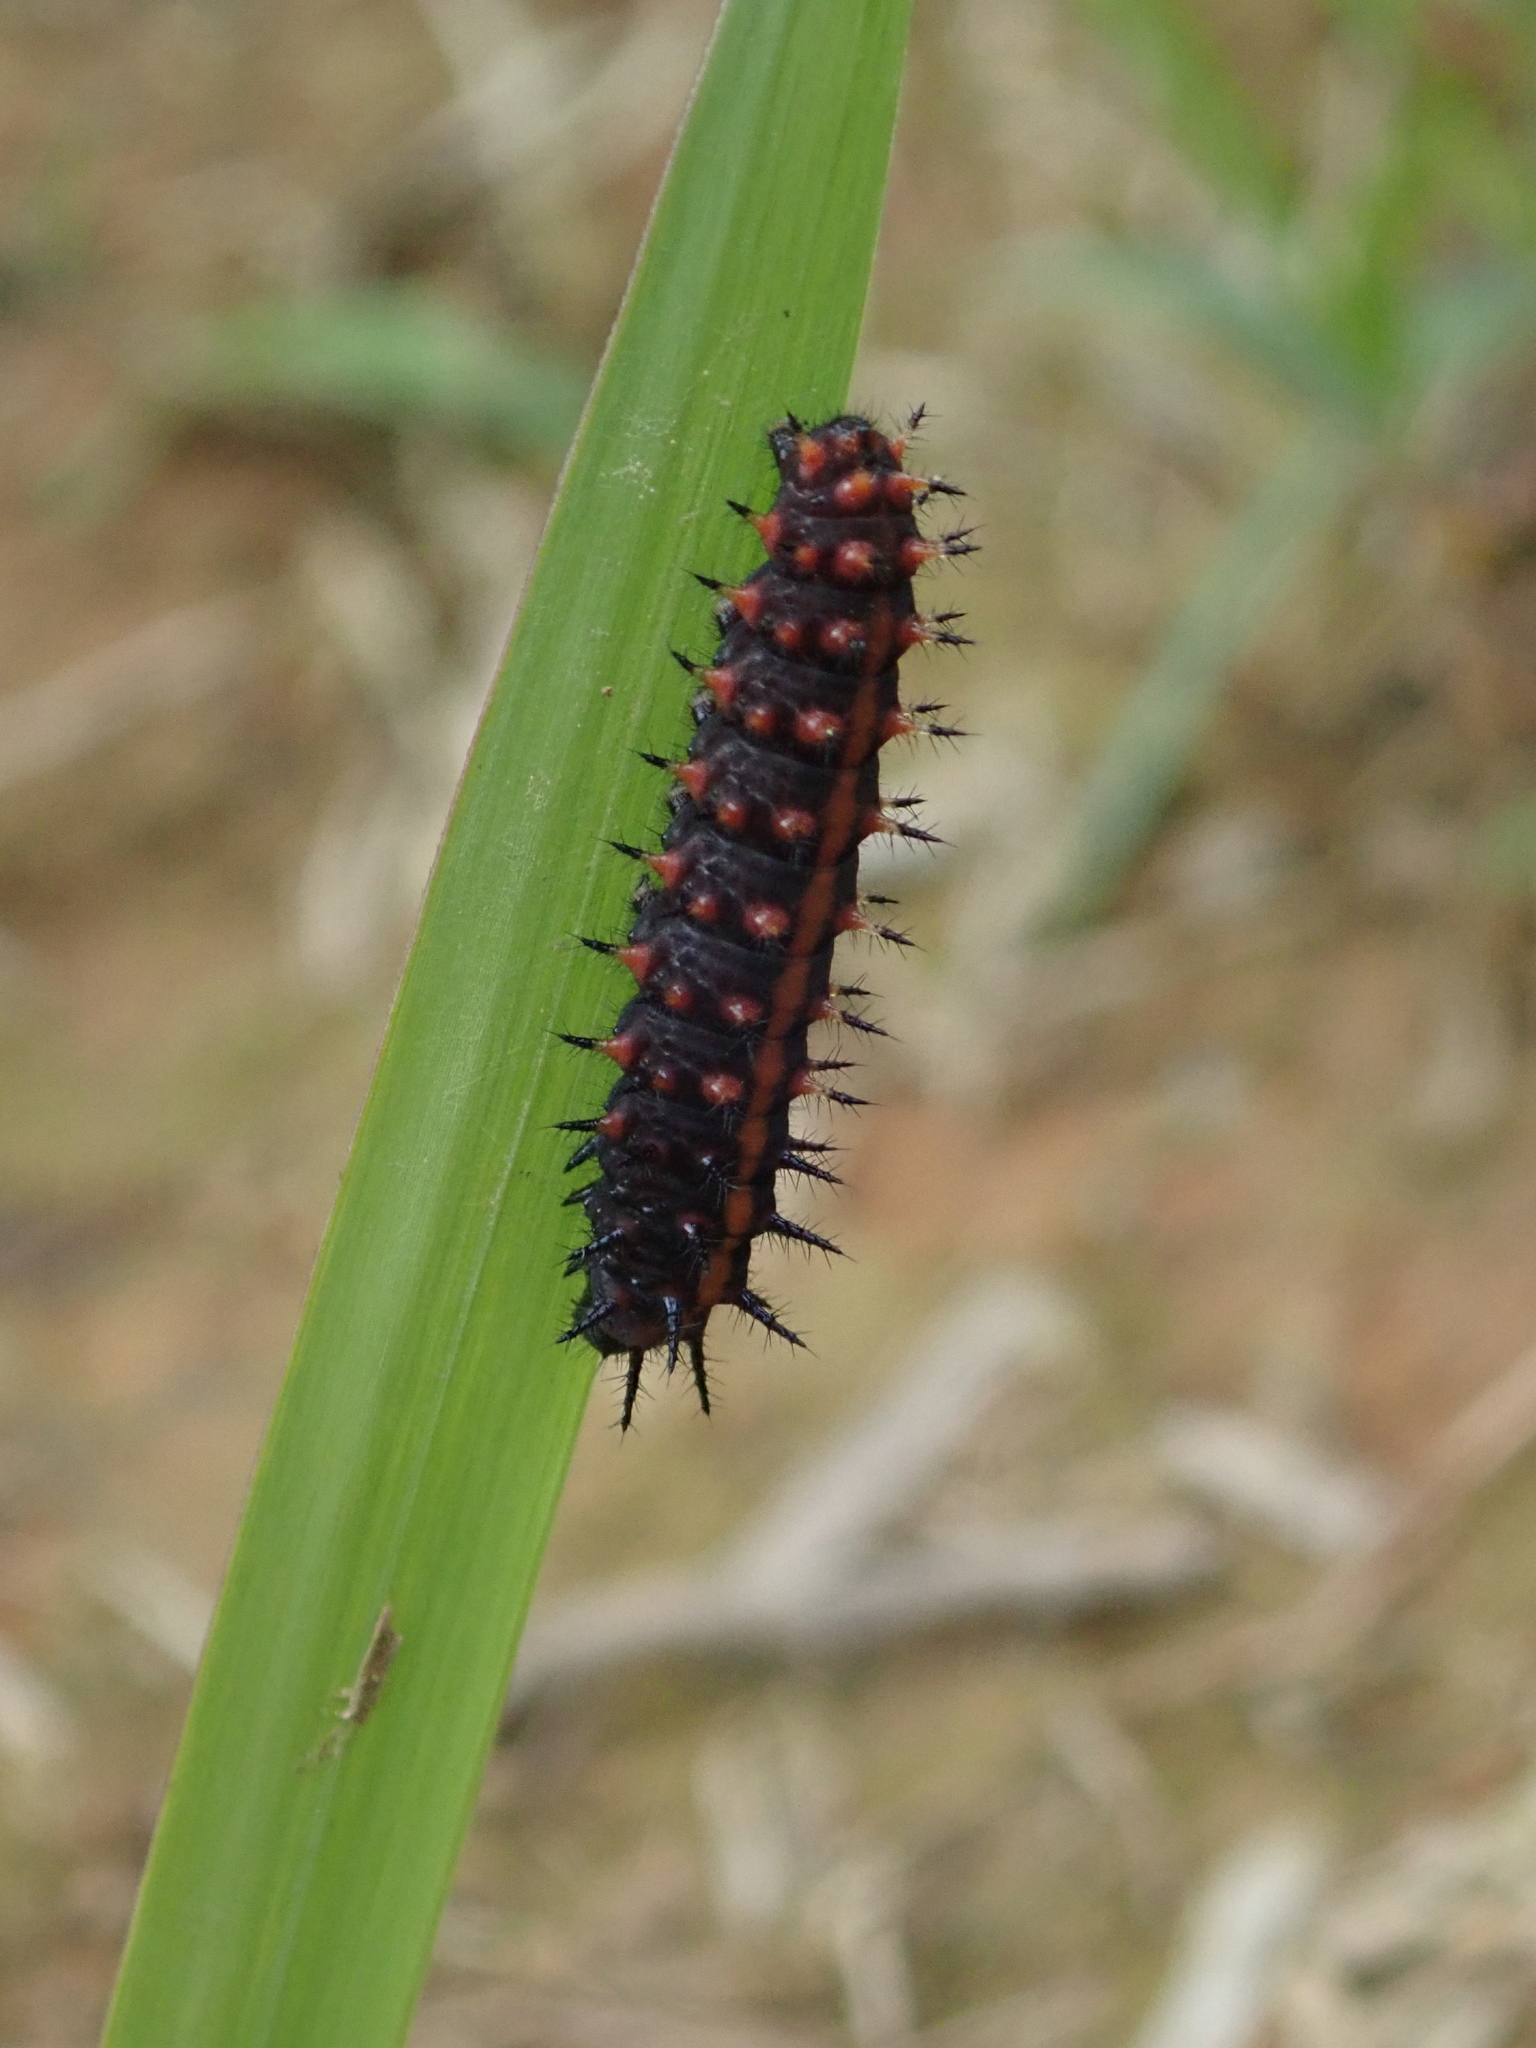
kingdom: Animalia
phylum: Arthropoda
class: Insecta
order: Lepidoptera
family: Nymphalidae
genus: Argynnis
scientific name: Argynnis hyperbius
